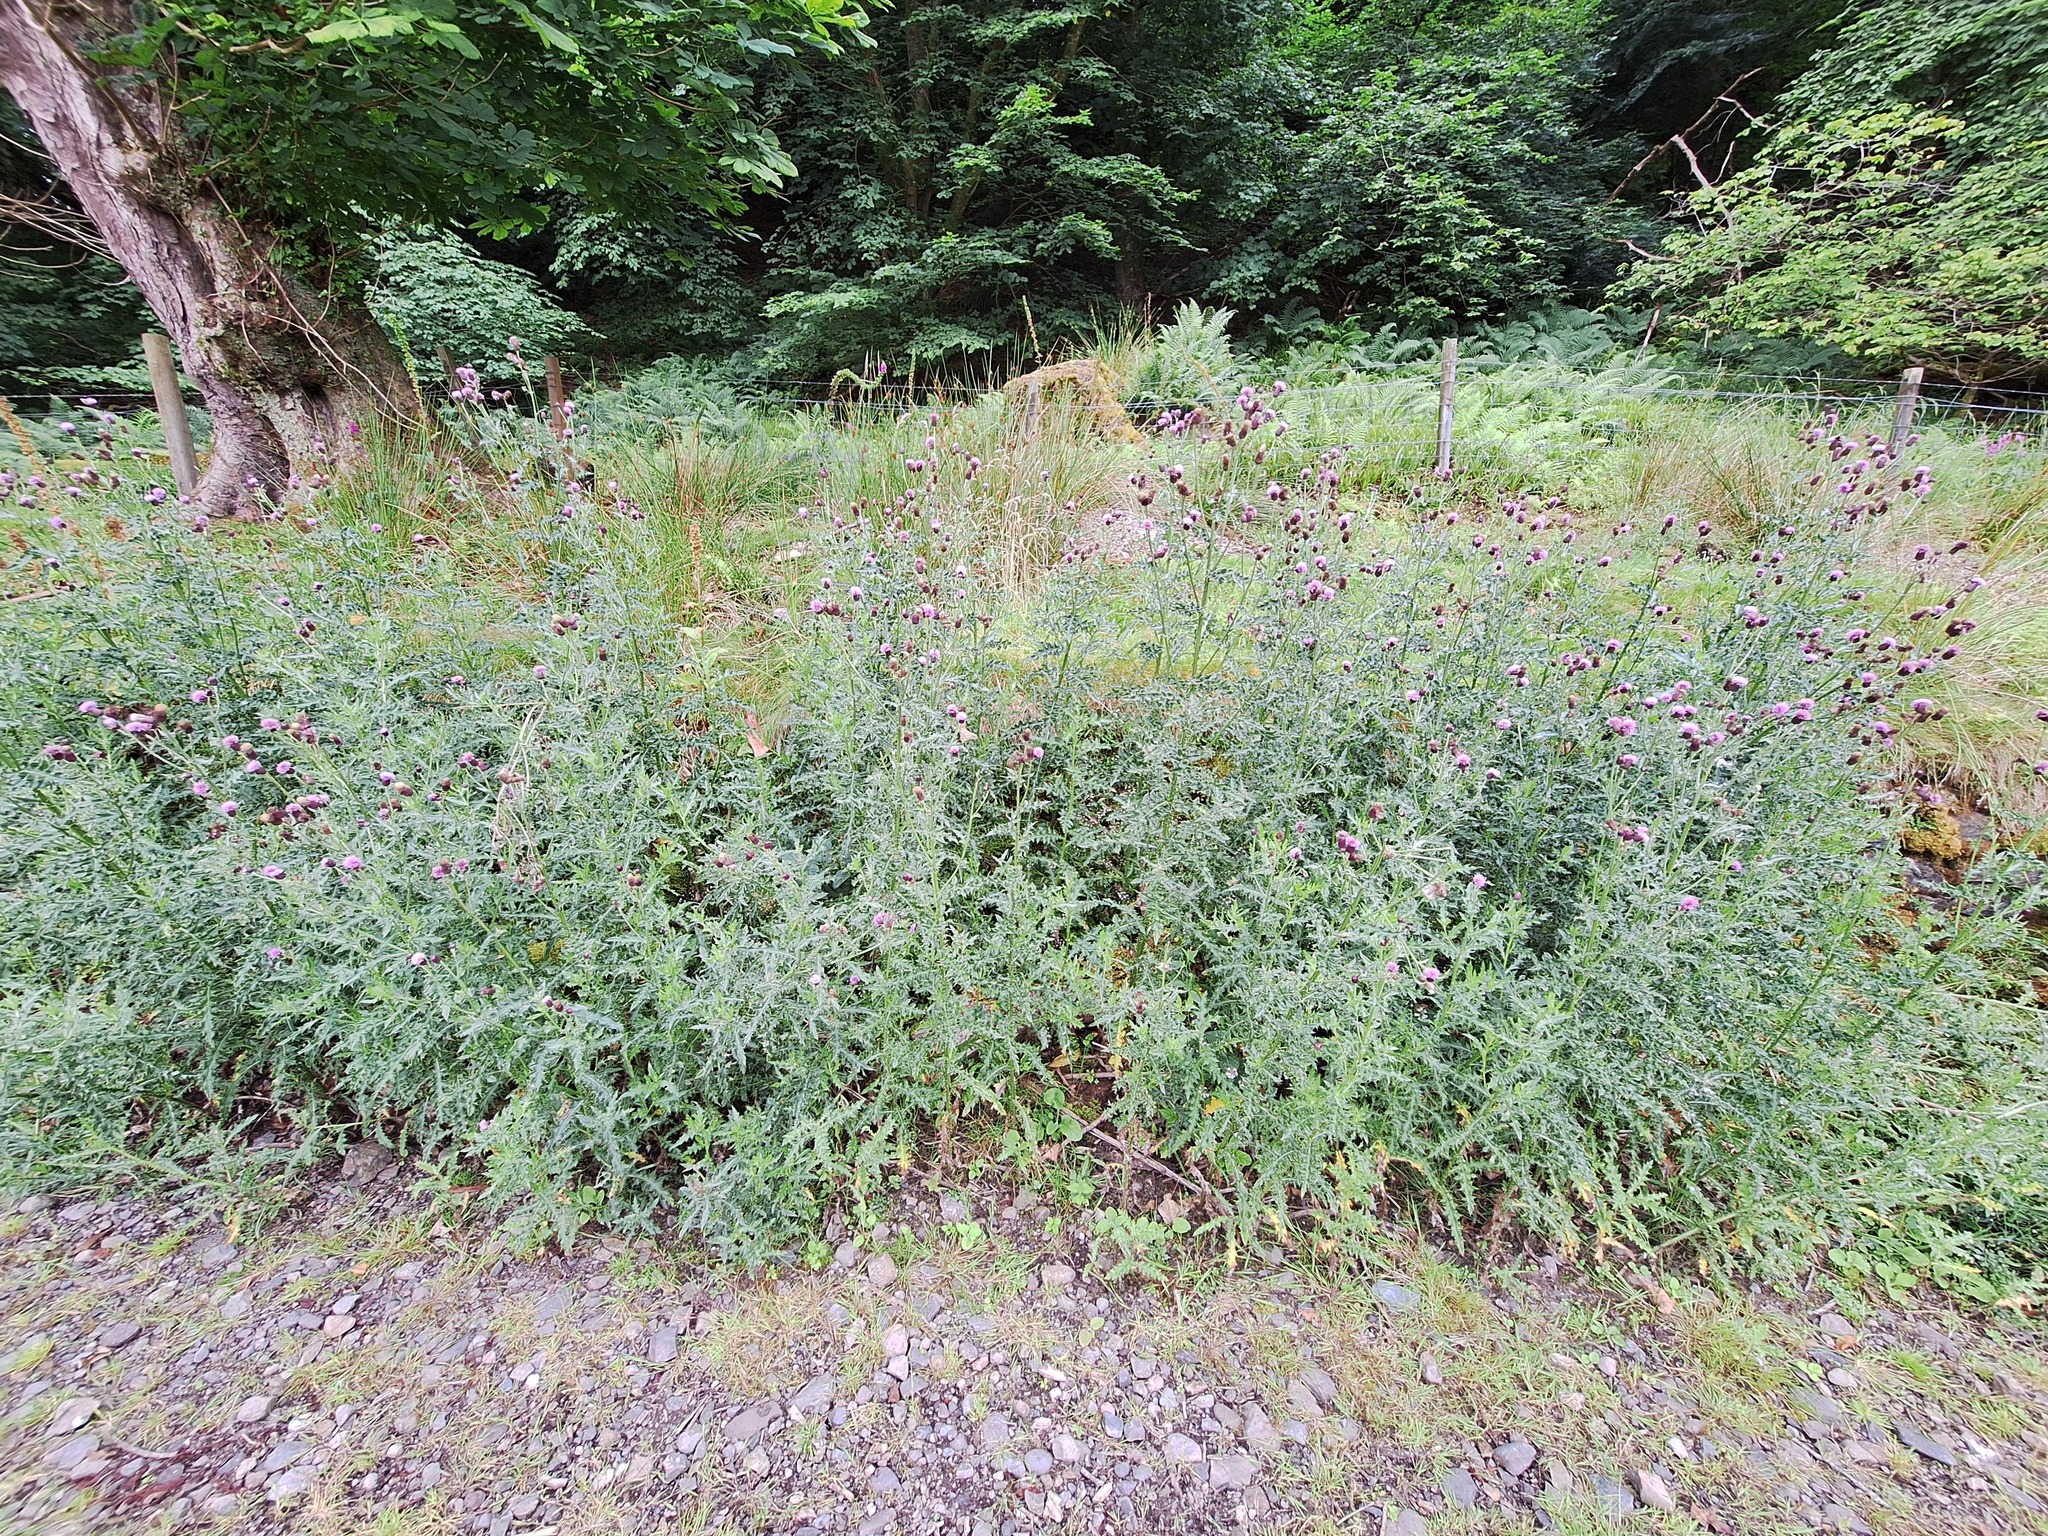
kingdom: Plantae
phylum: Tracheophyta
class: Magnoliopsida
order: Asterales
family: Asteraceae
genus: Cirsium
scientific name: Cirsium arvense
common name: Creeping thistle
